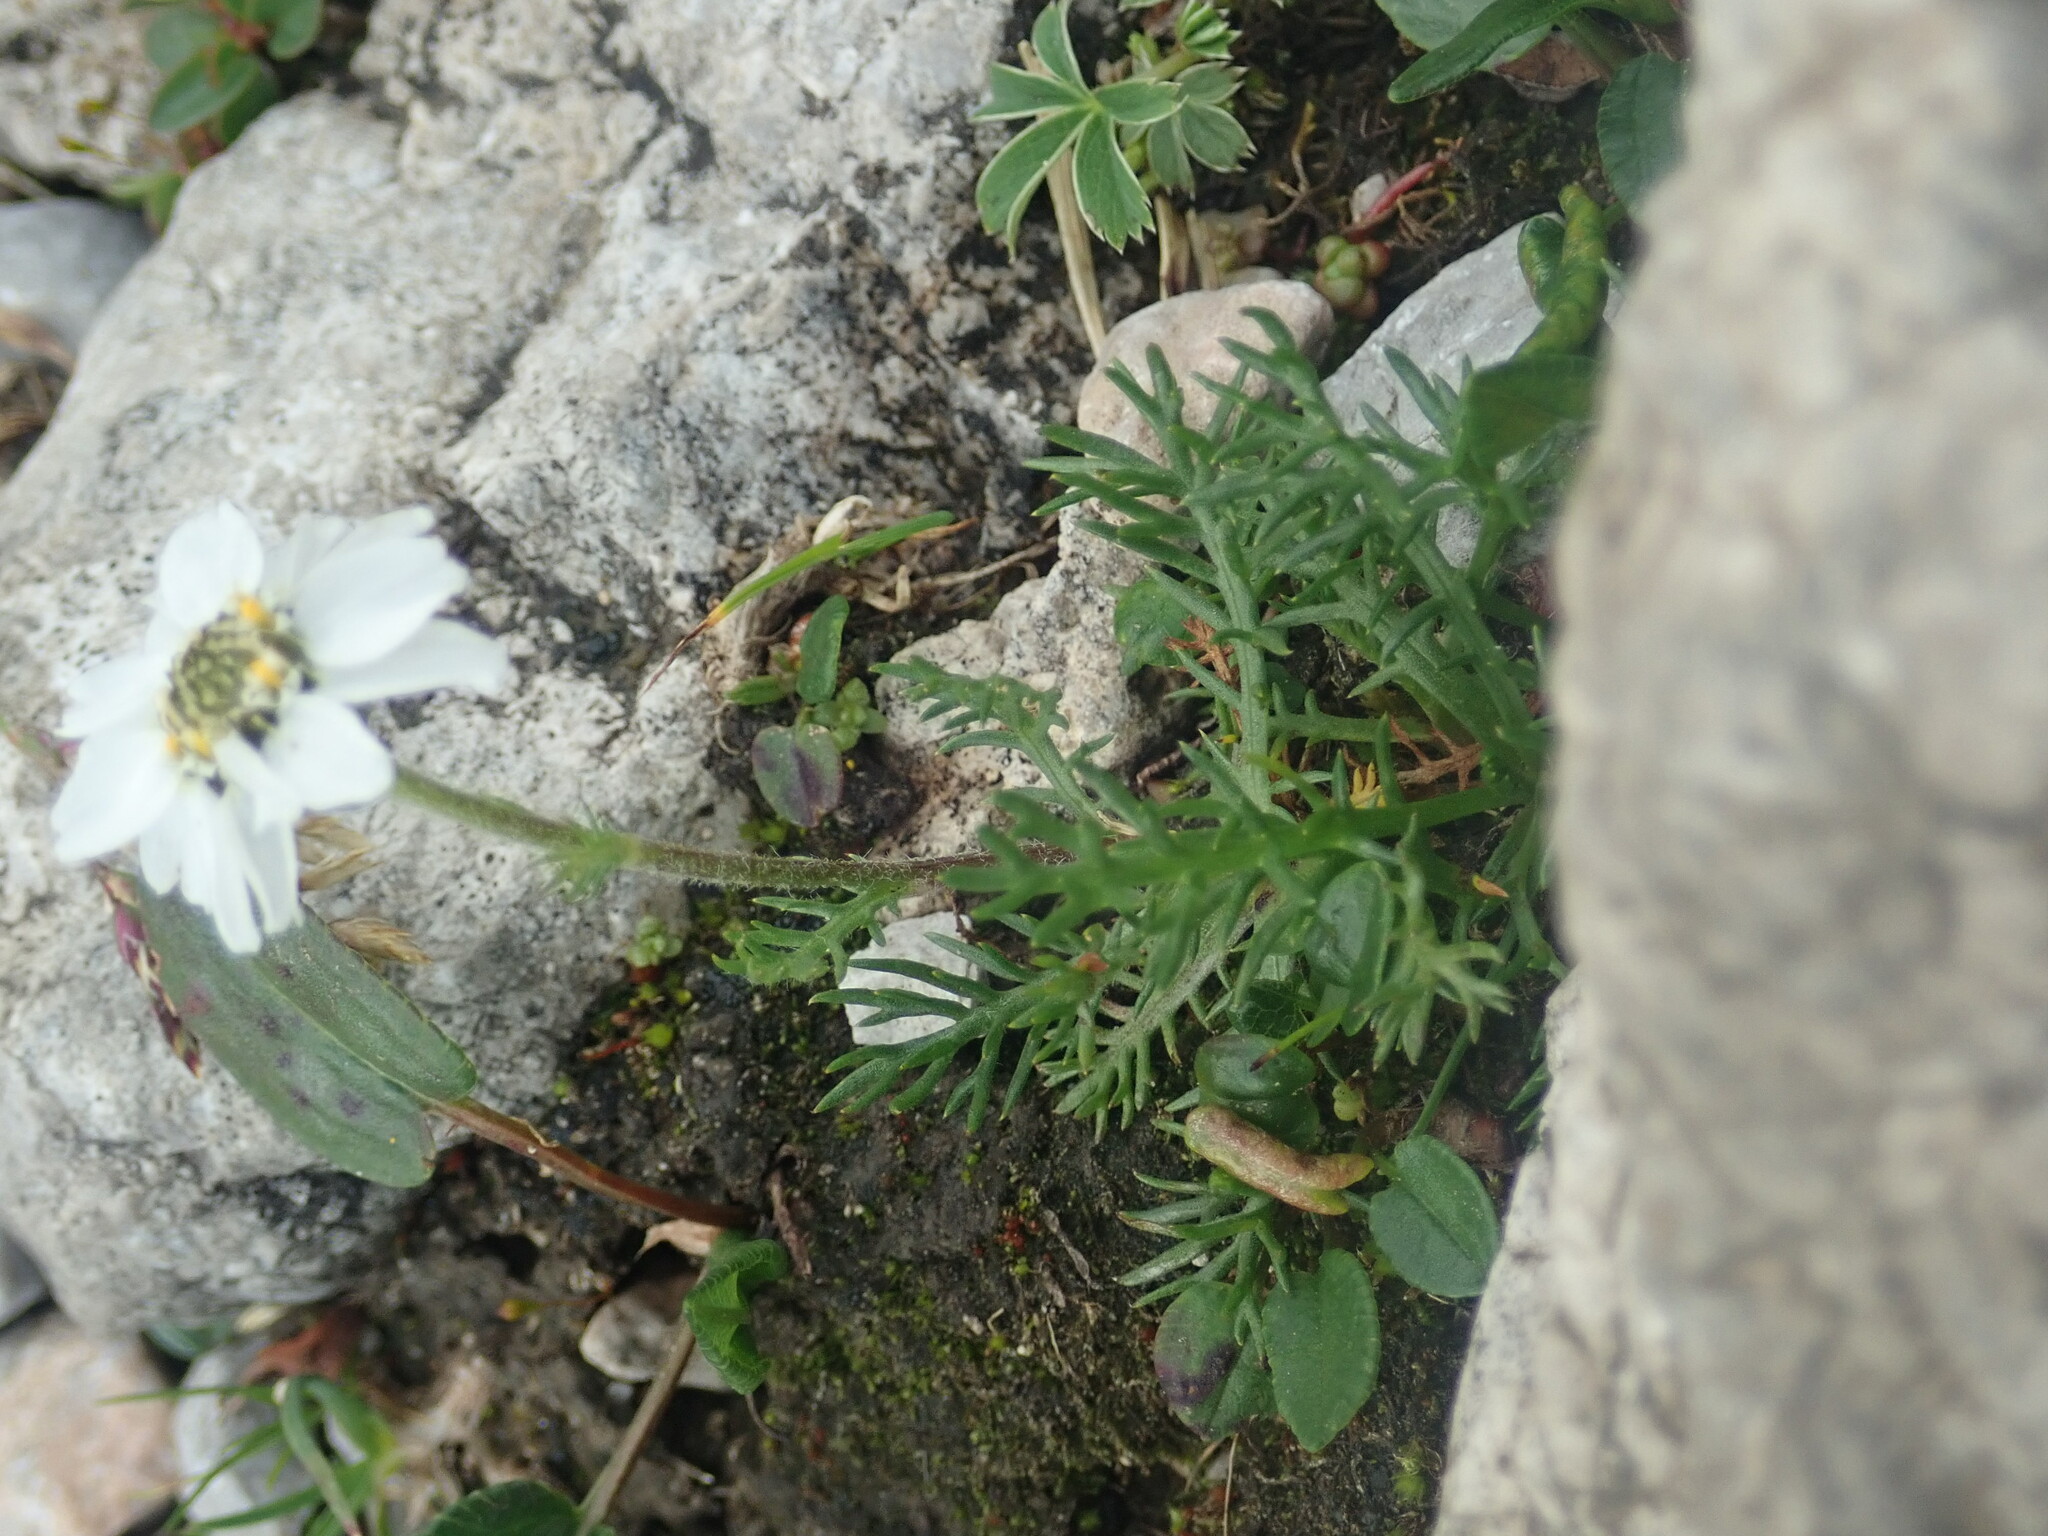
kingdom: Plantae
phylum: Tracheophyta
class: Magnoliopsida
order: Asterales
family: Asteraceae
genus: Achillea
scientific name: Achillea atrata
